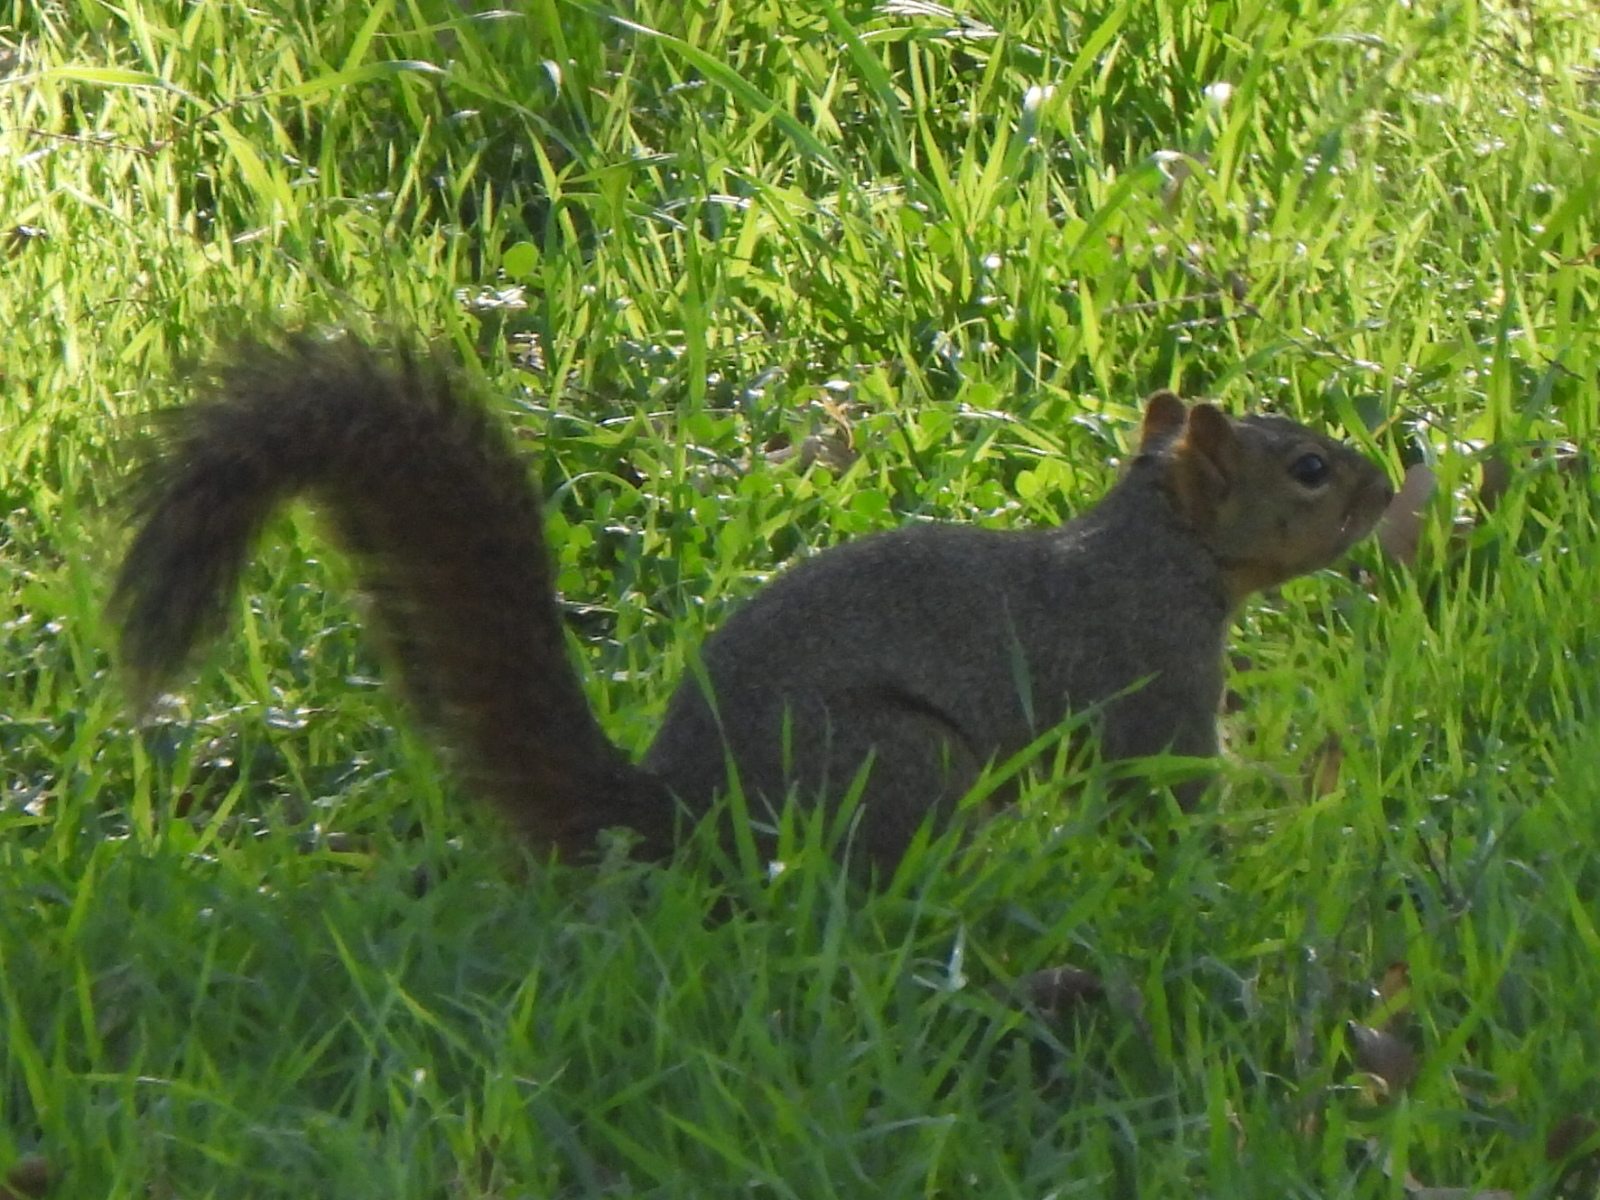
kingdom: Animalia
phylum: Chordata
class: Mammalia
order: Rodentia
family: Sciuridae
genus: Sciurus
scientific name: Sciurus niger
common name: Fox squirrel
